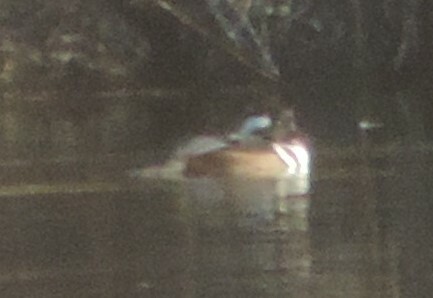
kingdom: Animalia
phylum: Chordata
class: Aves
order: Anseriformes
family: Anatidae
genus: Lophodytes
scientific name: Lophodytes cucullatus
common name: Hooded merganser
